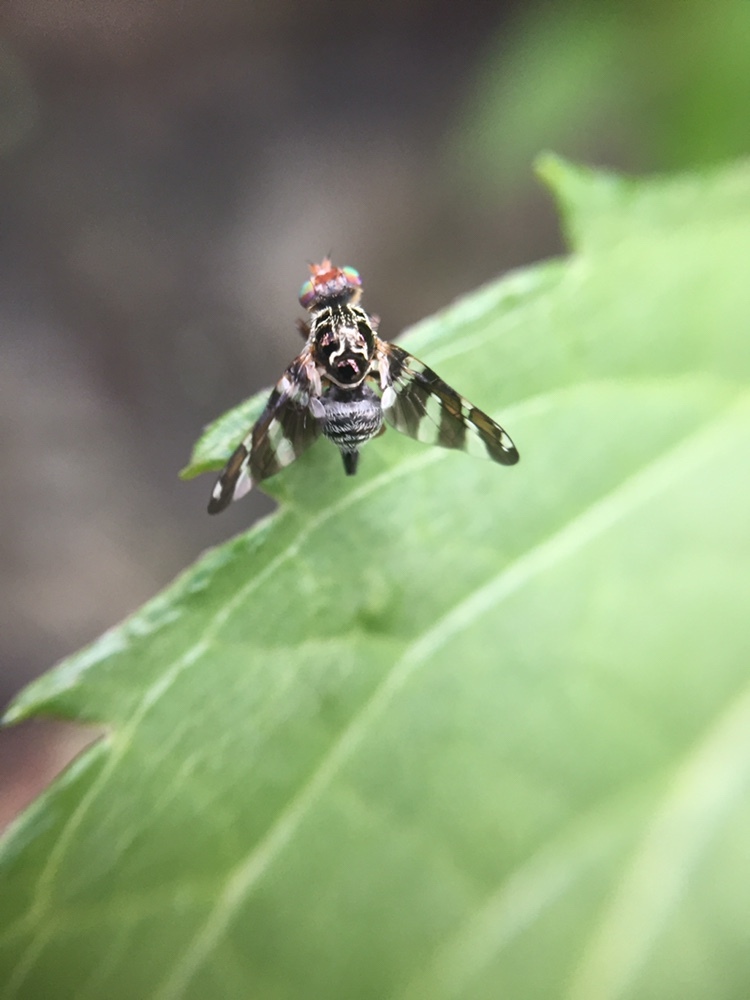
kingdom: Animalia
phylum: Arthropoda
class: Insecta
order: Diptera
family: Tephritidae
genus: Procecidochares
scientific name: Procecidochares alani
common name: Fruit fly
